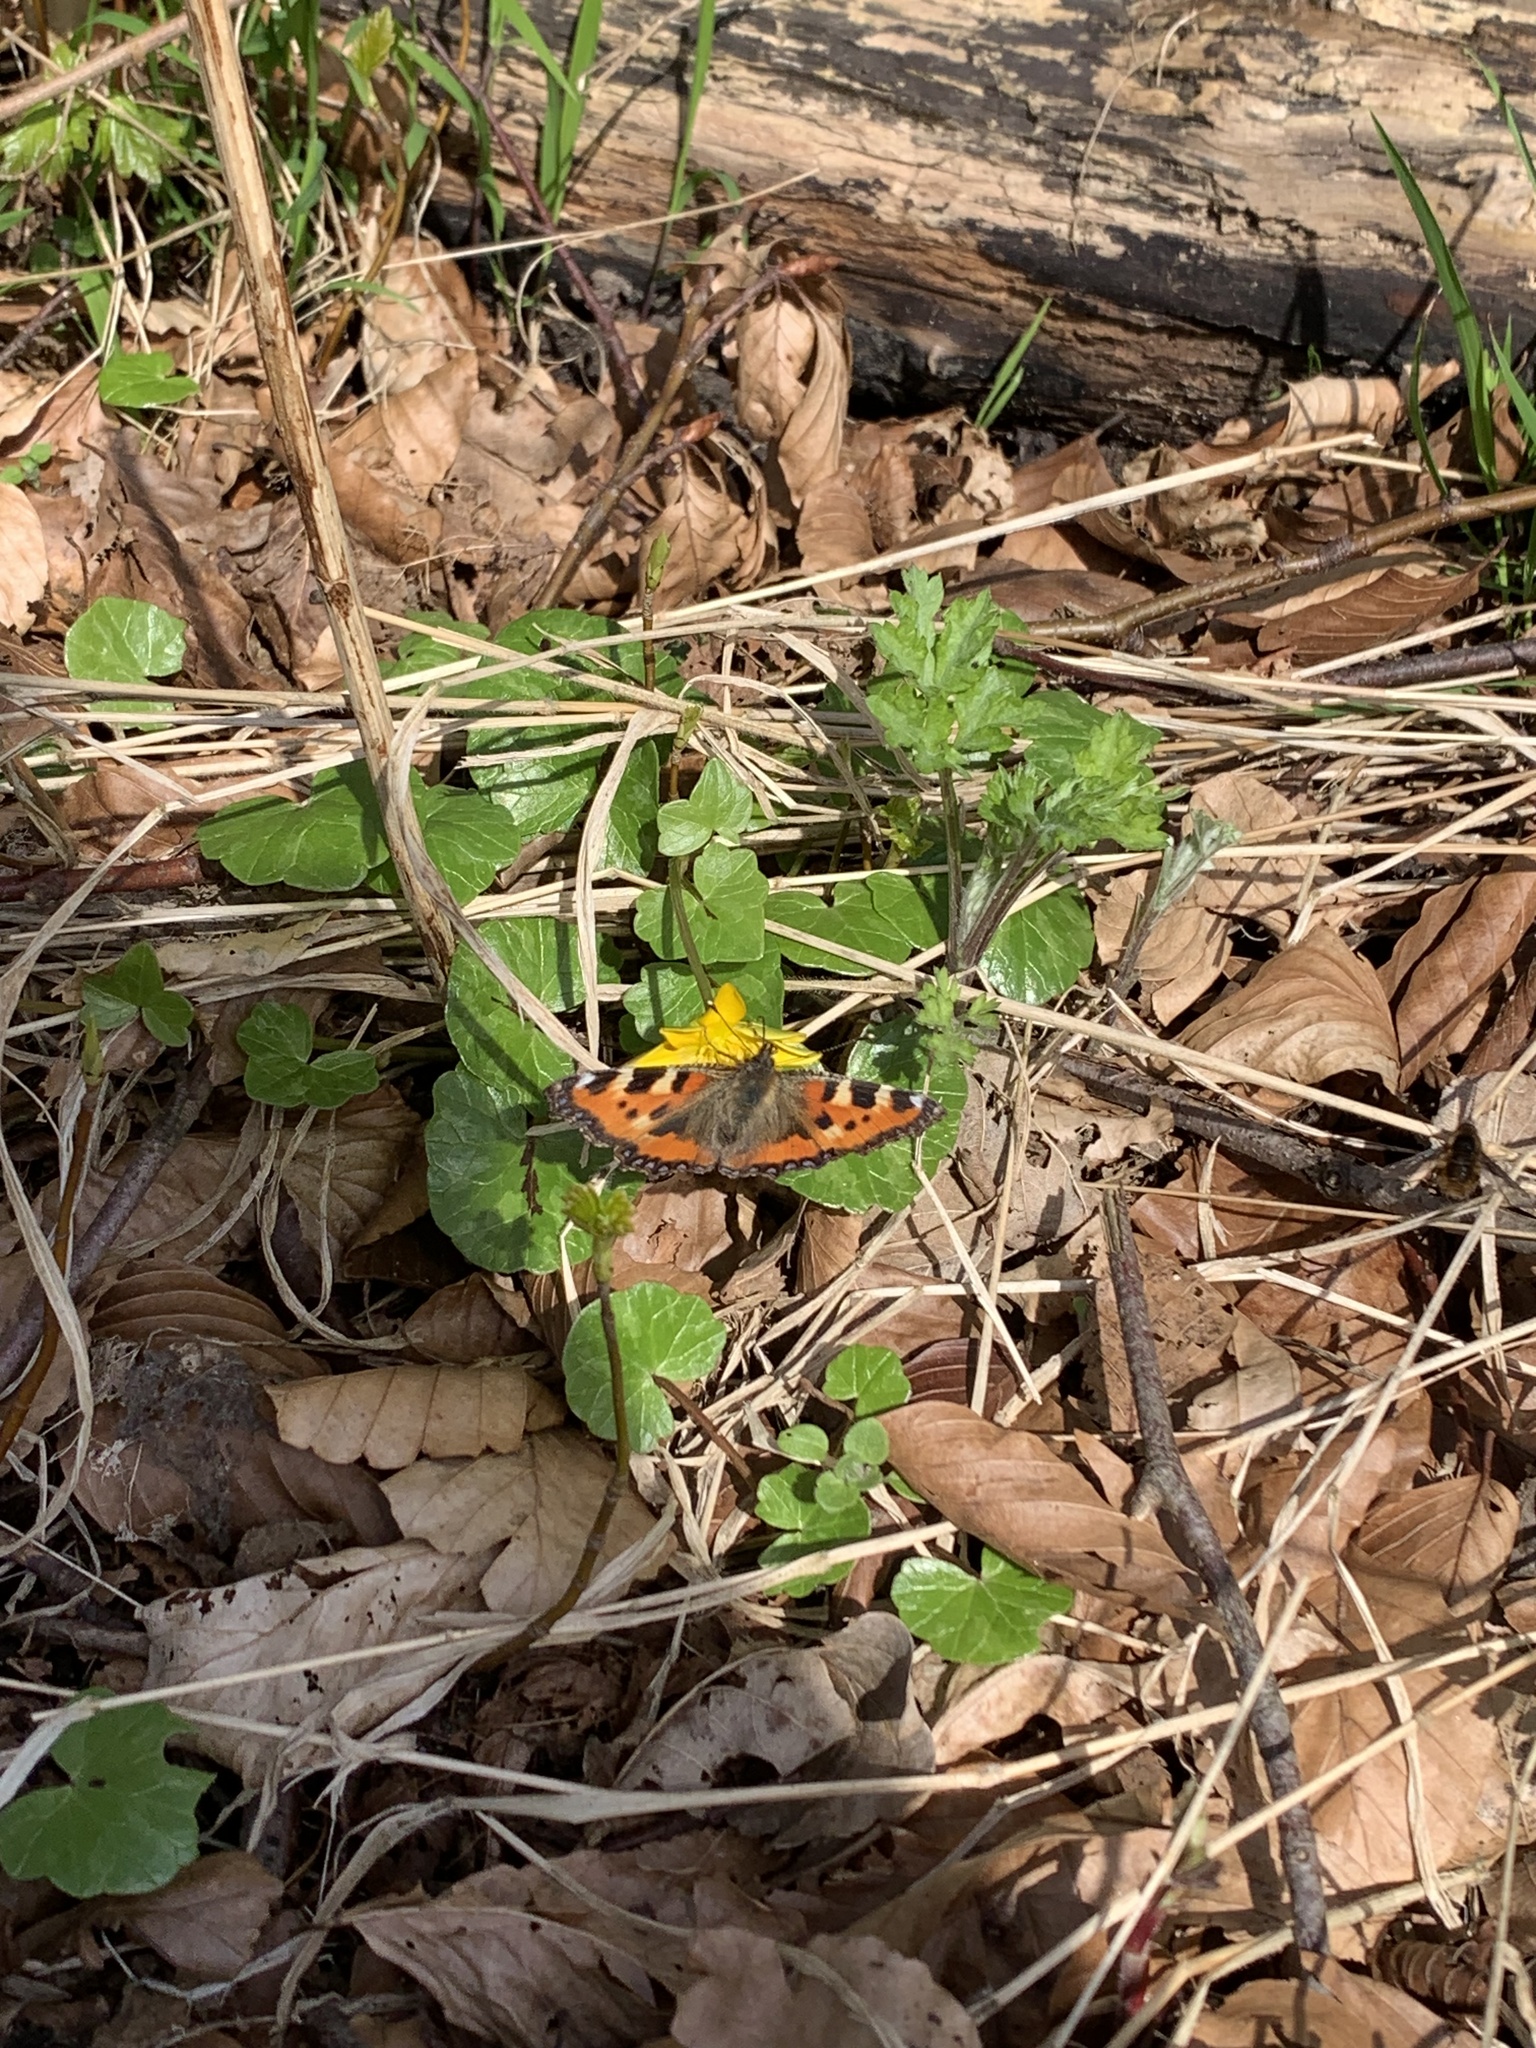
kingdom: Animalia
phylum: Arthropoda
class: Insecta
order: Lepidoptera
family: Nymphalidae
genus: Aglais
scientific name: Aglais urticae
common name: Small tortoiseshell
